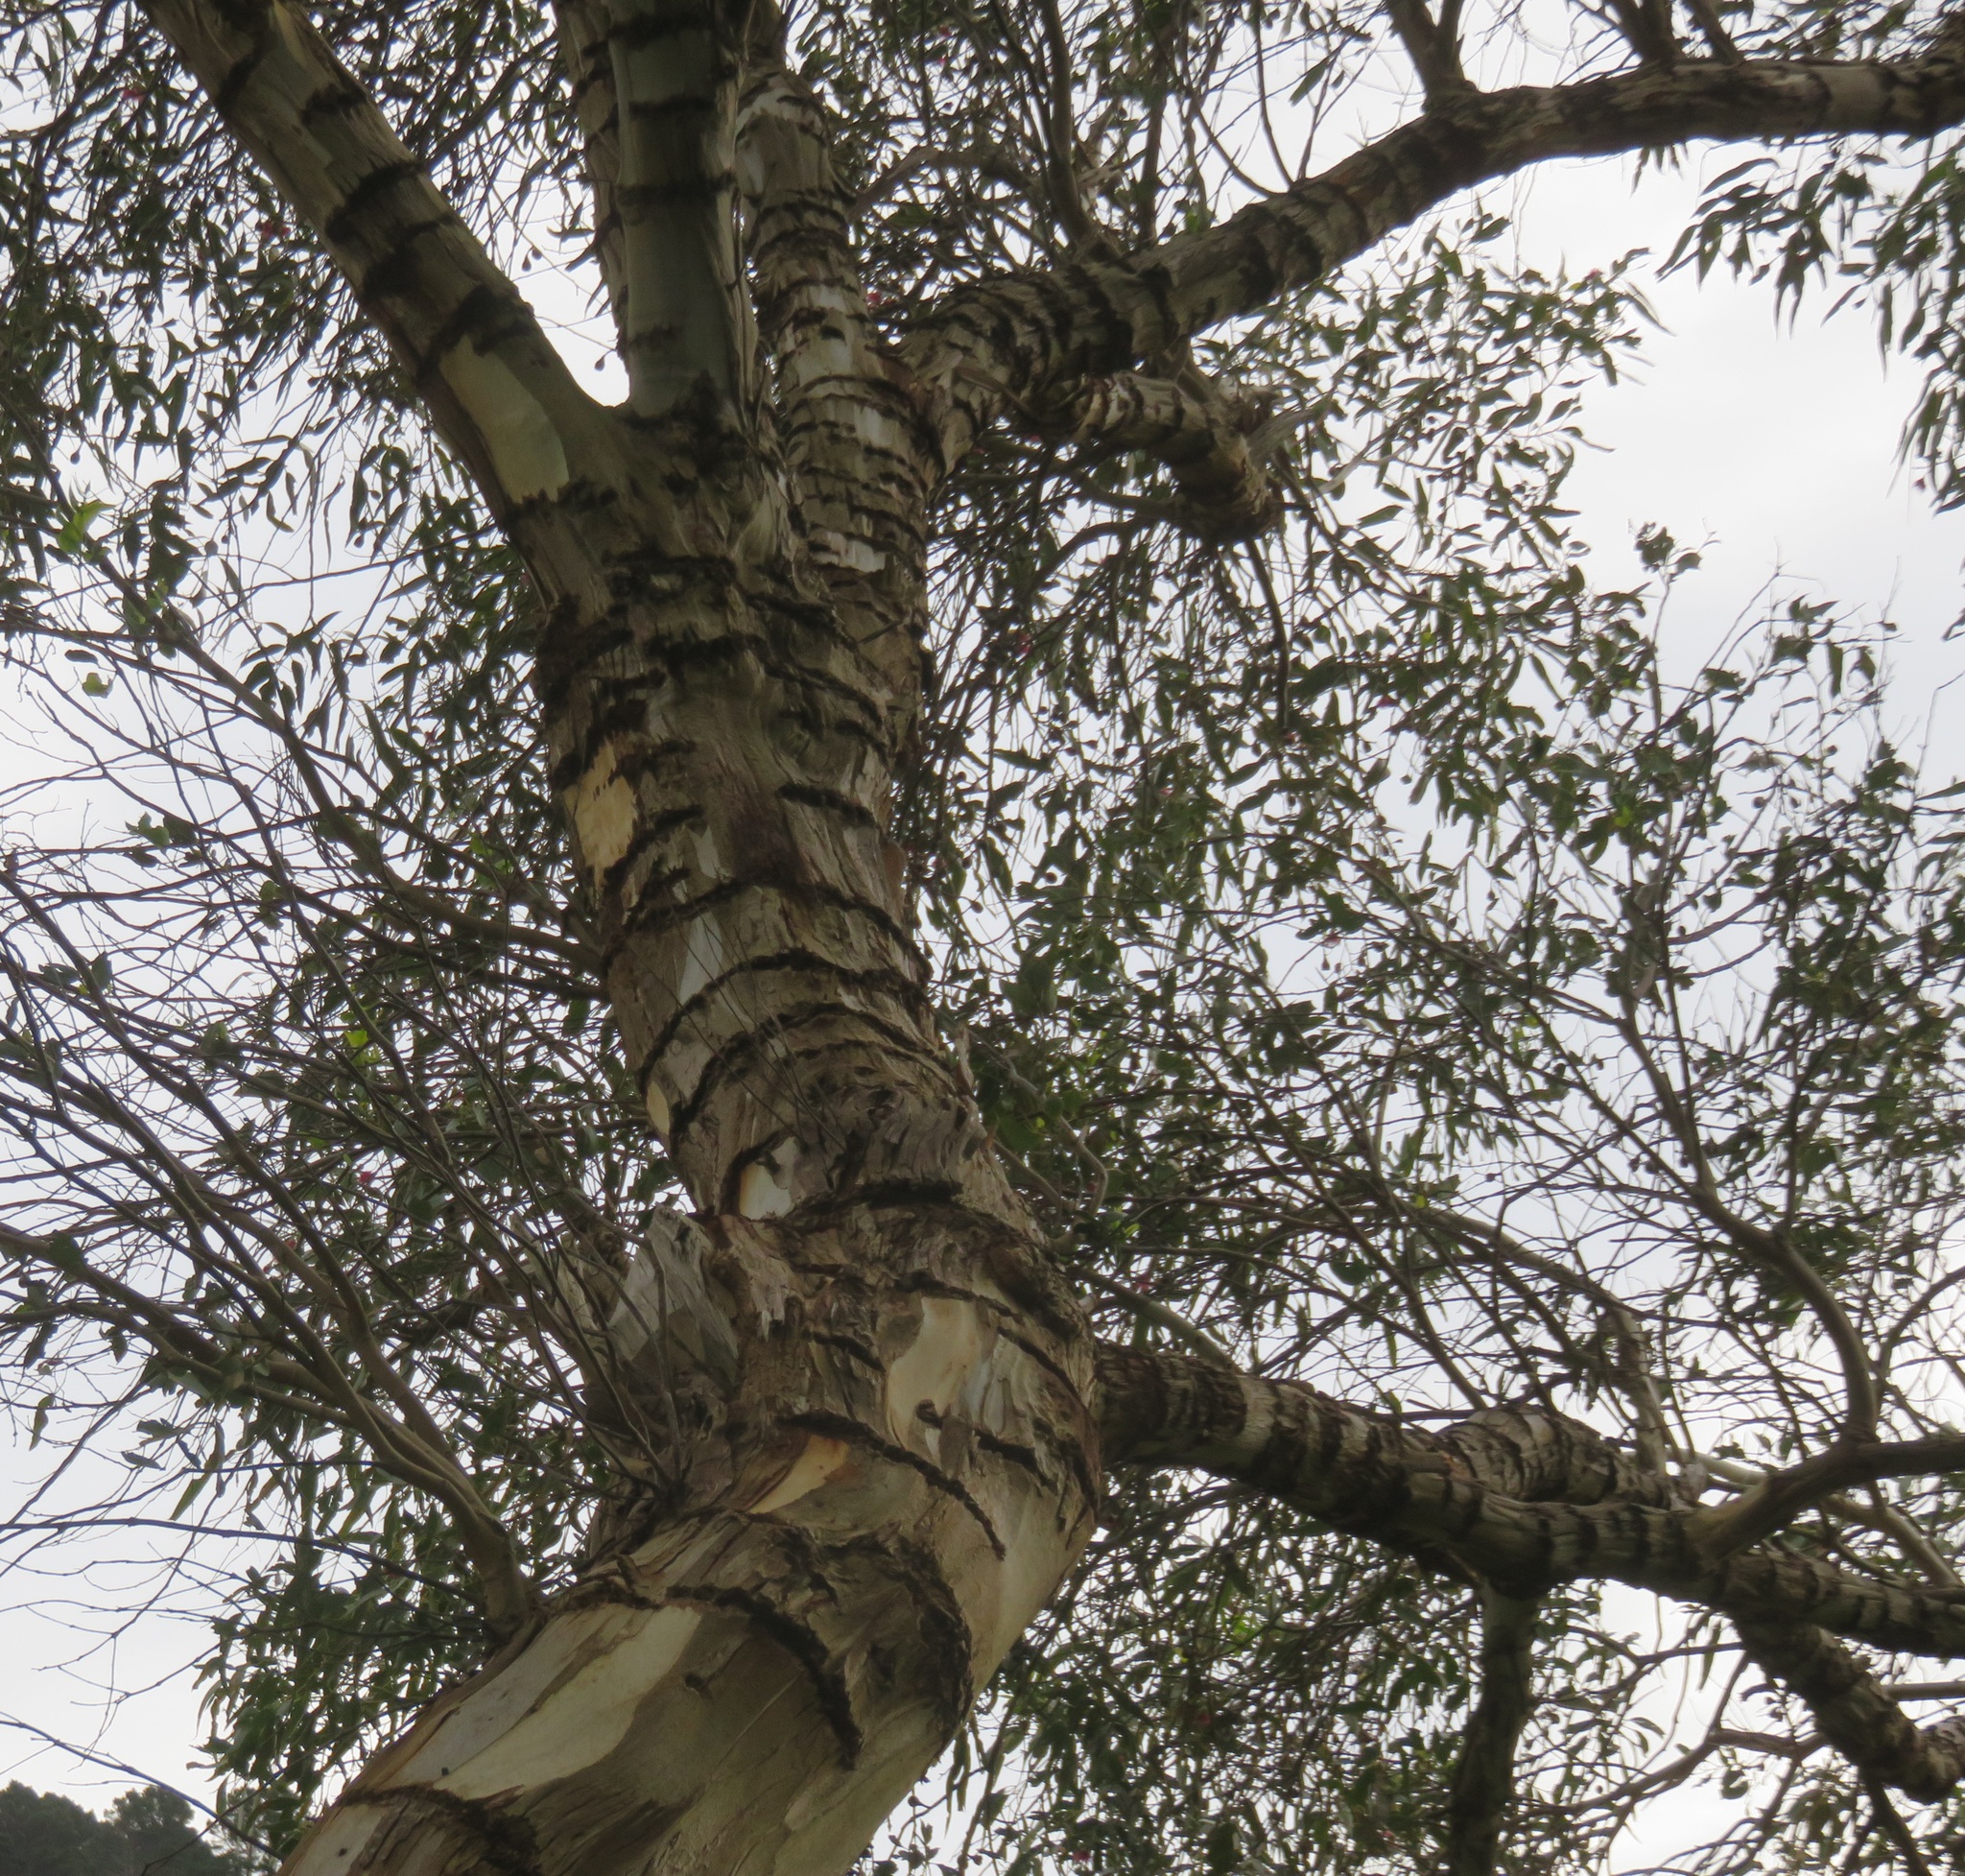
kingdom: Animalia
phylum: Chordata
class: Aves
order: Psittaciformes
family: Psittacidae
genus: Nestor
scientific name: Nestor meridionalis
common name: New zealand kaka
